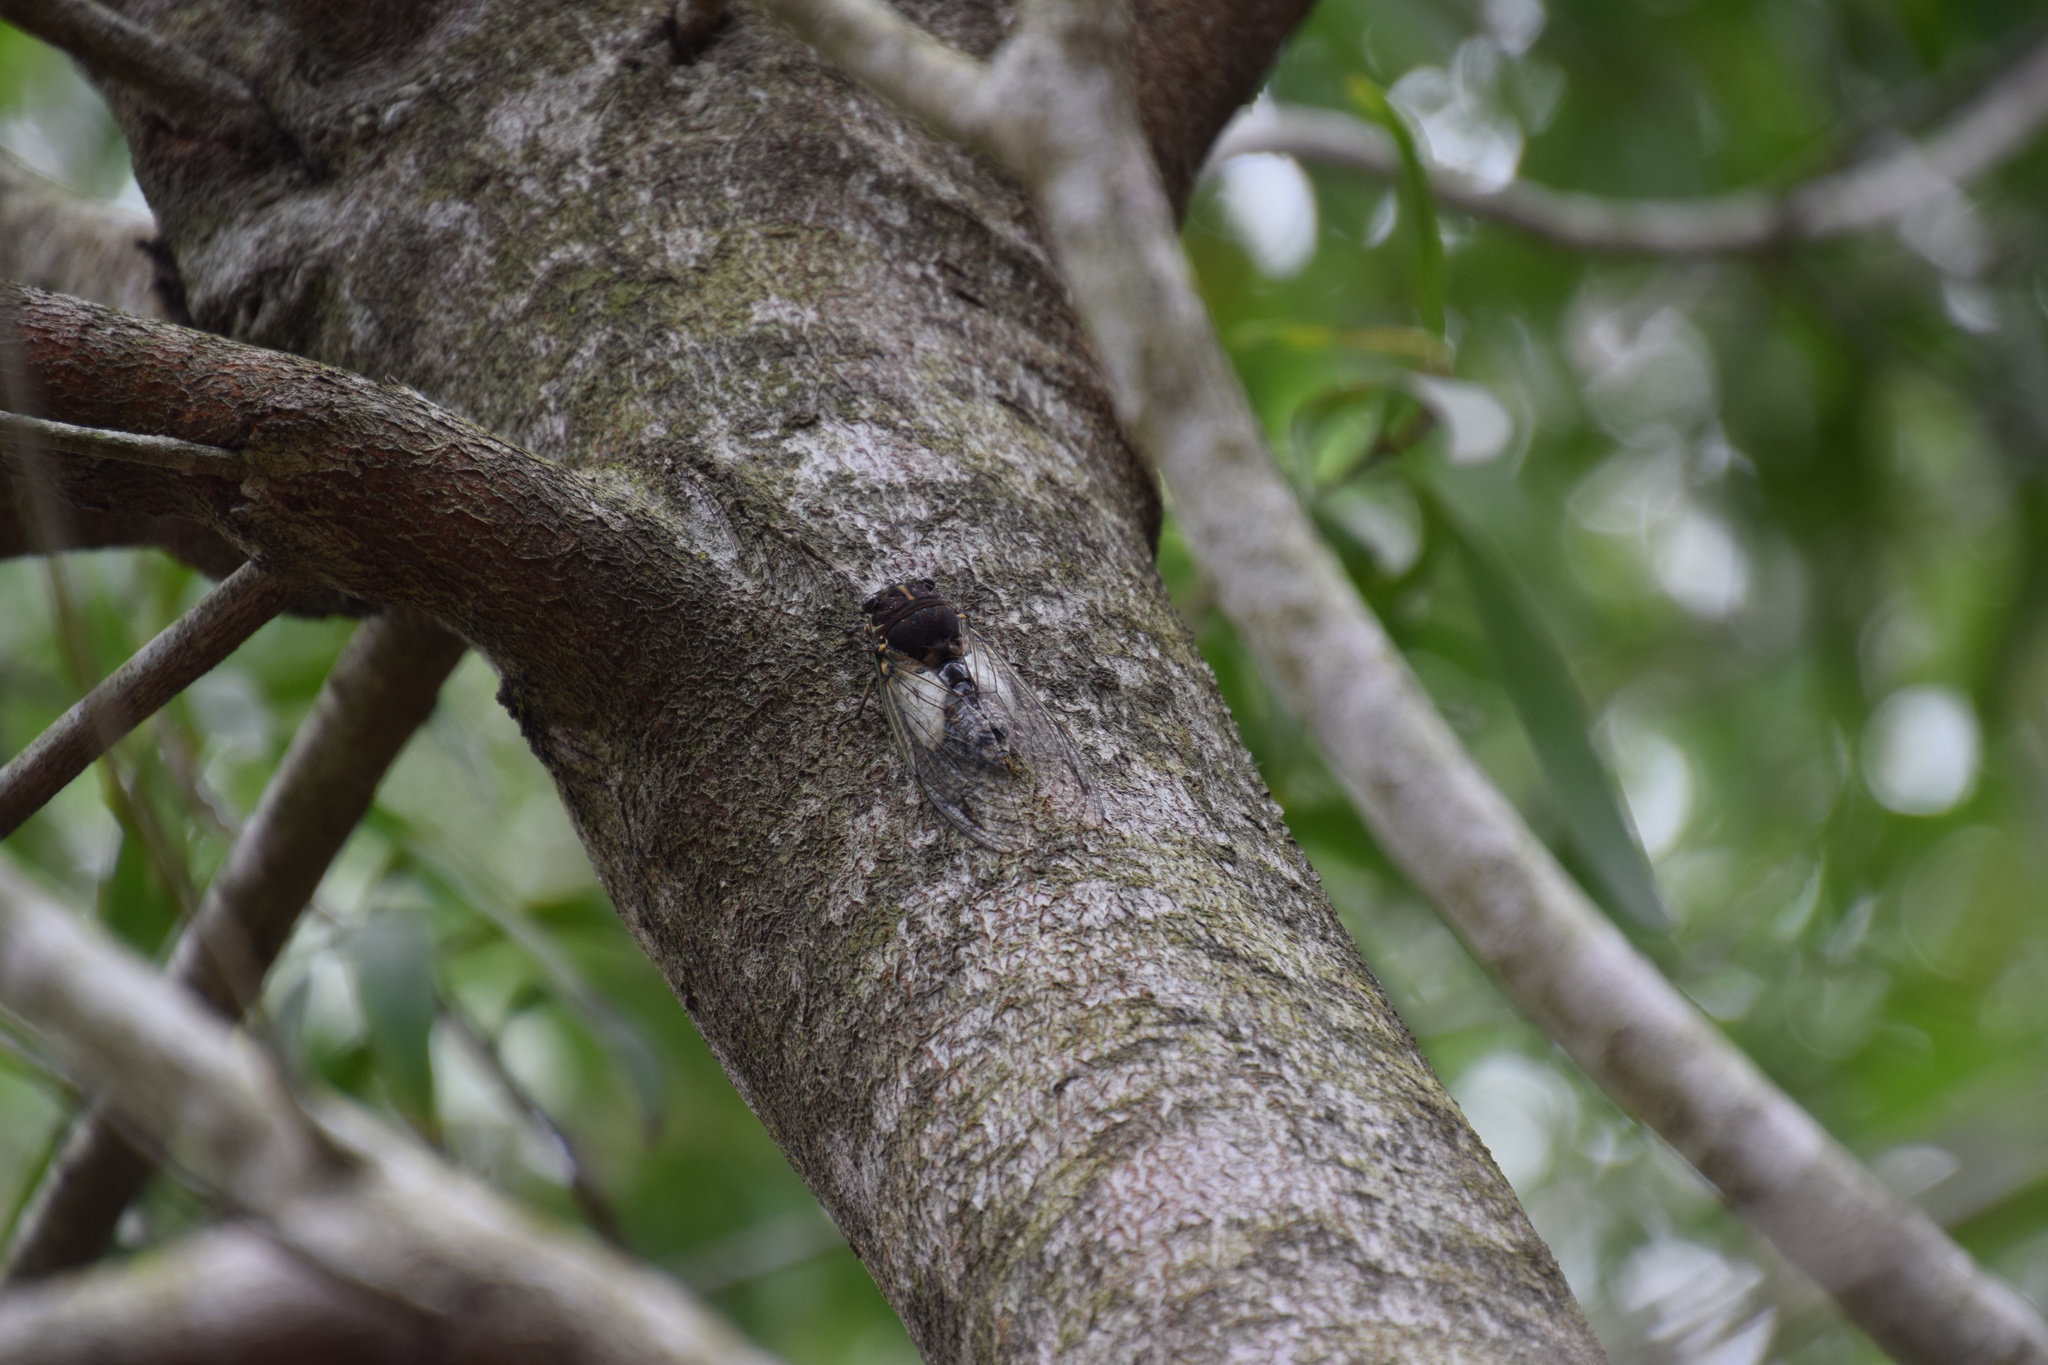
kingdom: Animalia
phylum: Arthropoda
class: Insecta
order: Hemiptera
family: Cicadidae
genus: Arunta
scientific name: Arunta perulata
